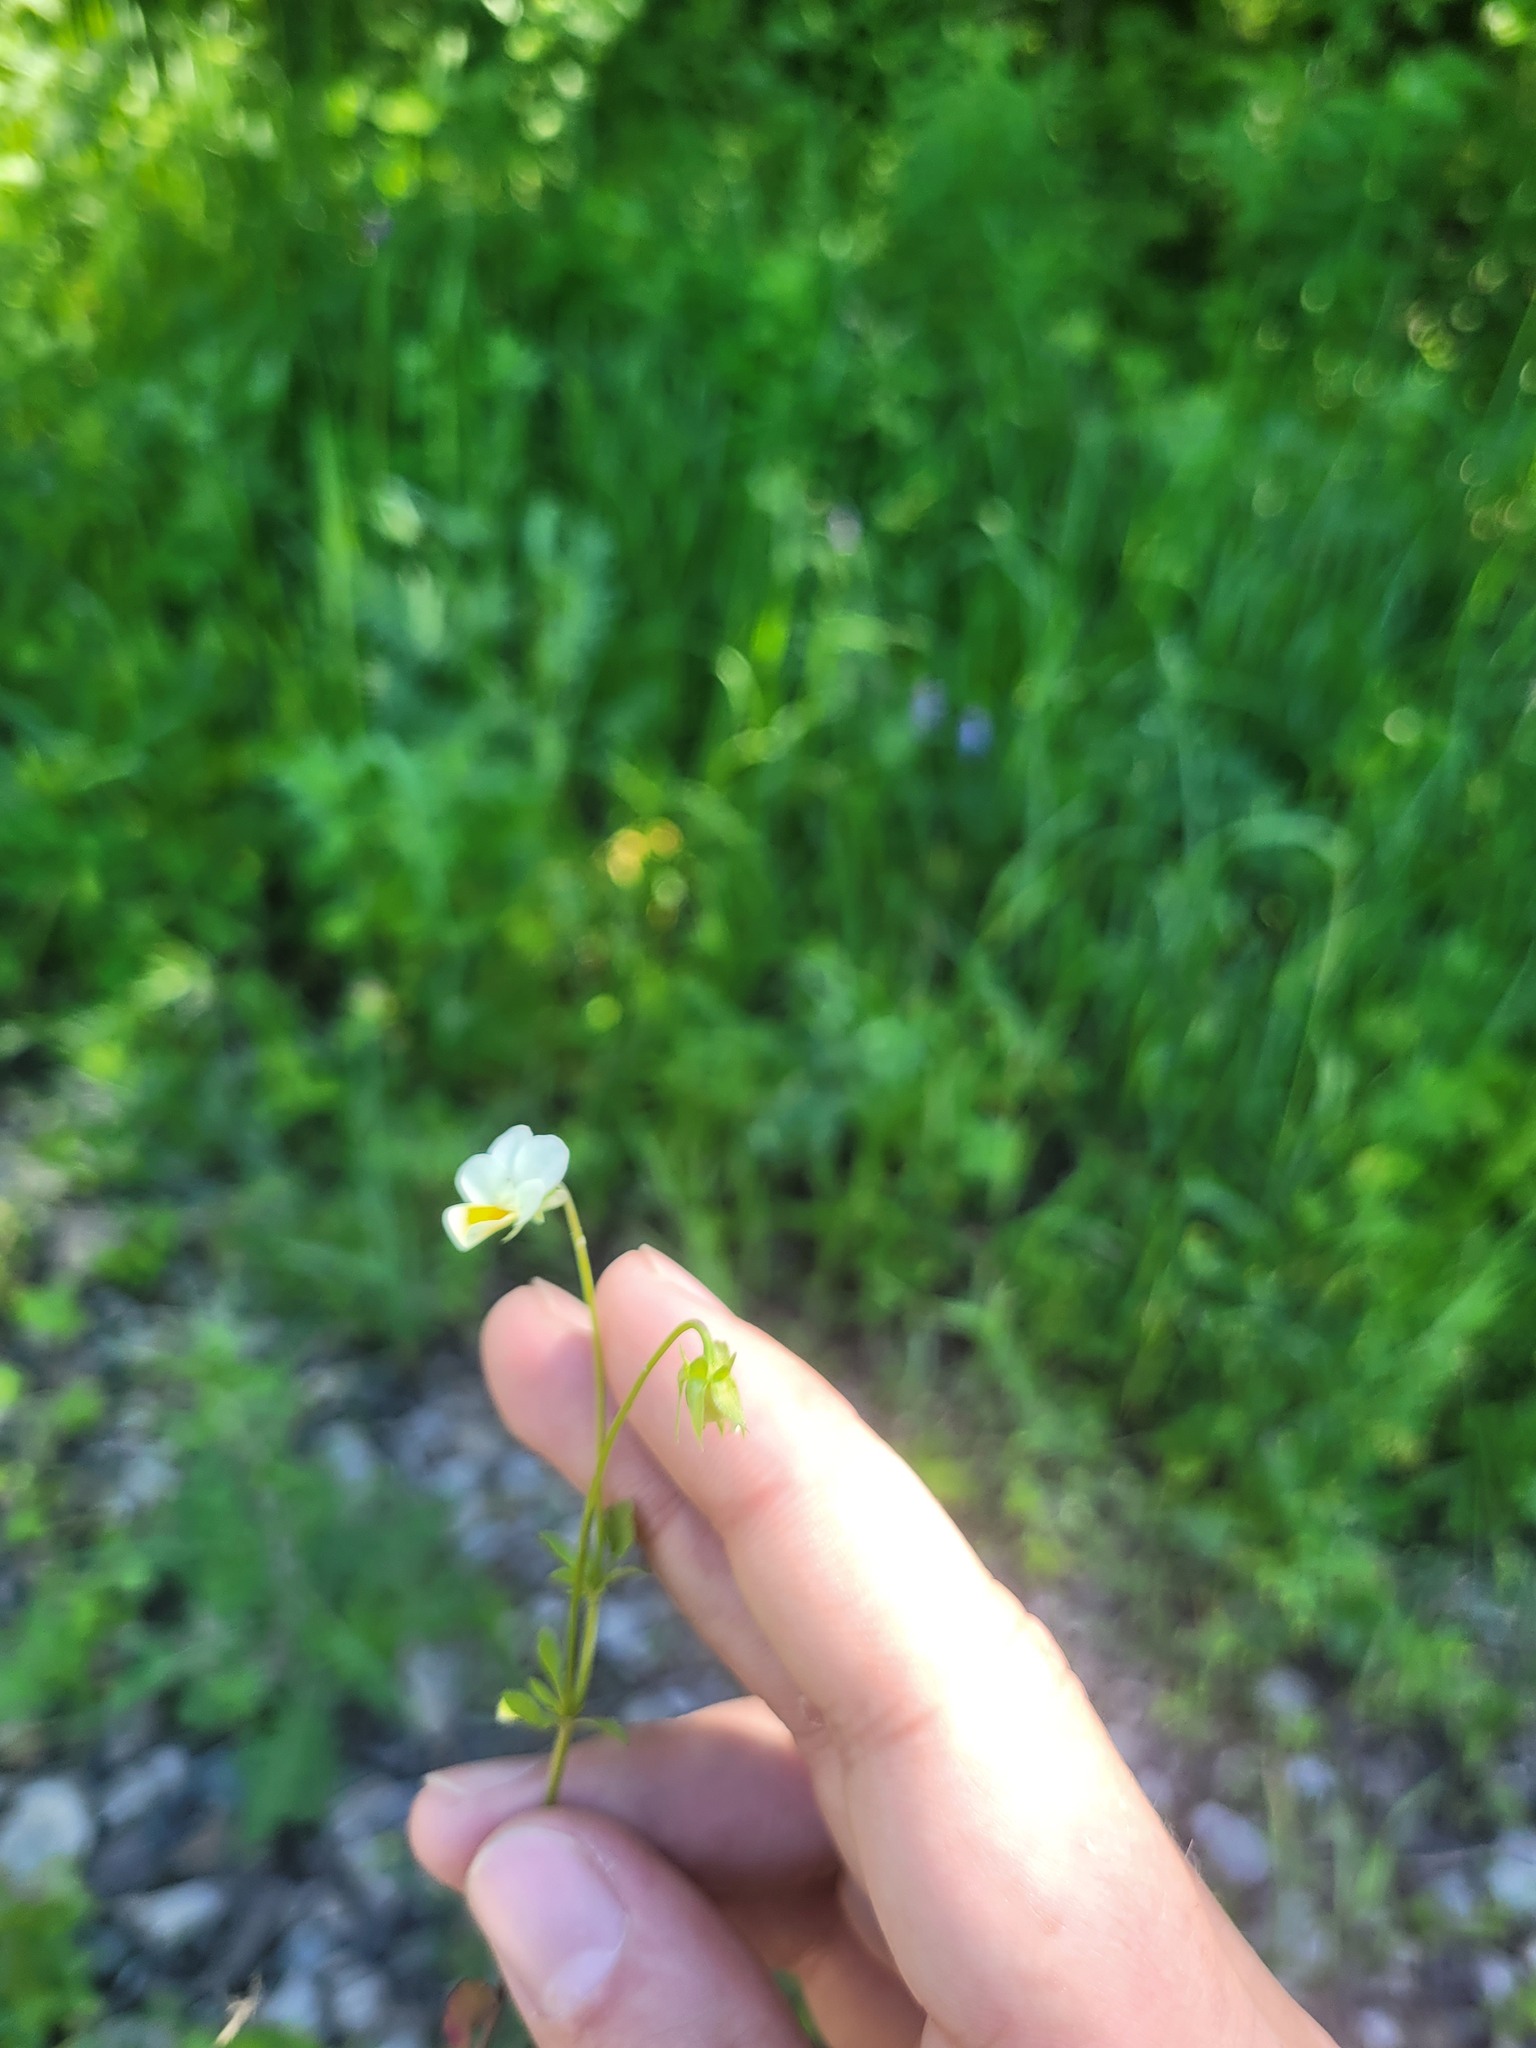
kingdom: Plantae
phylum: Tracheophyta
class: Magnoliopsida
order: Malpighiales
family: Violaceae
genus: Viola
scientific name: Viola contempta
